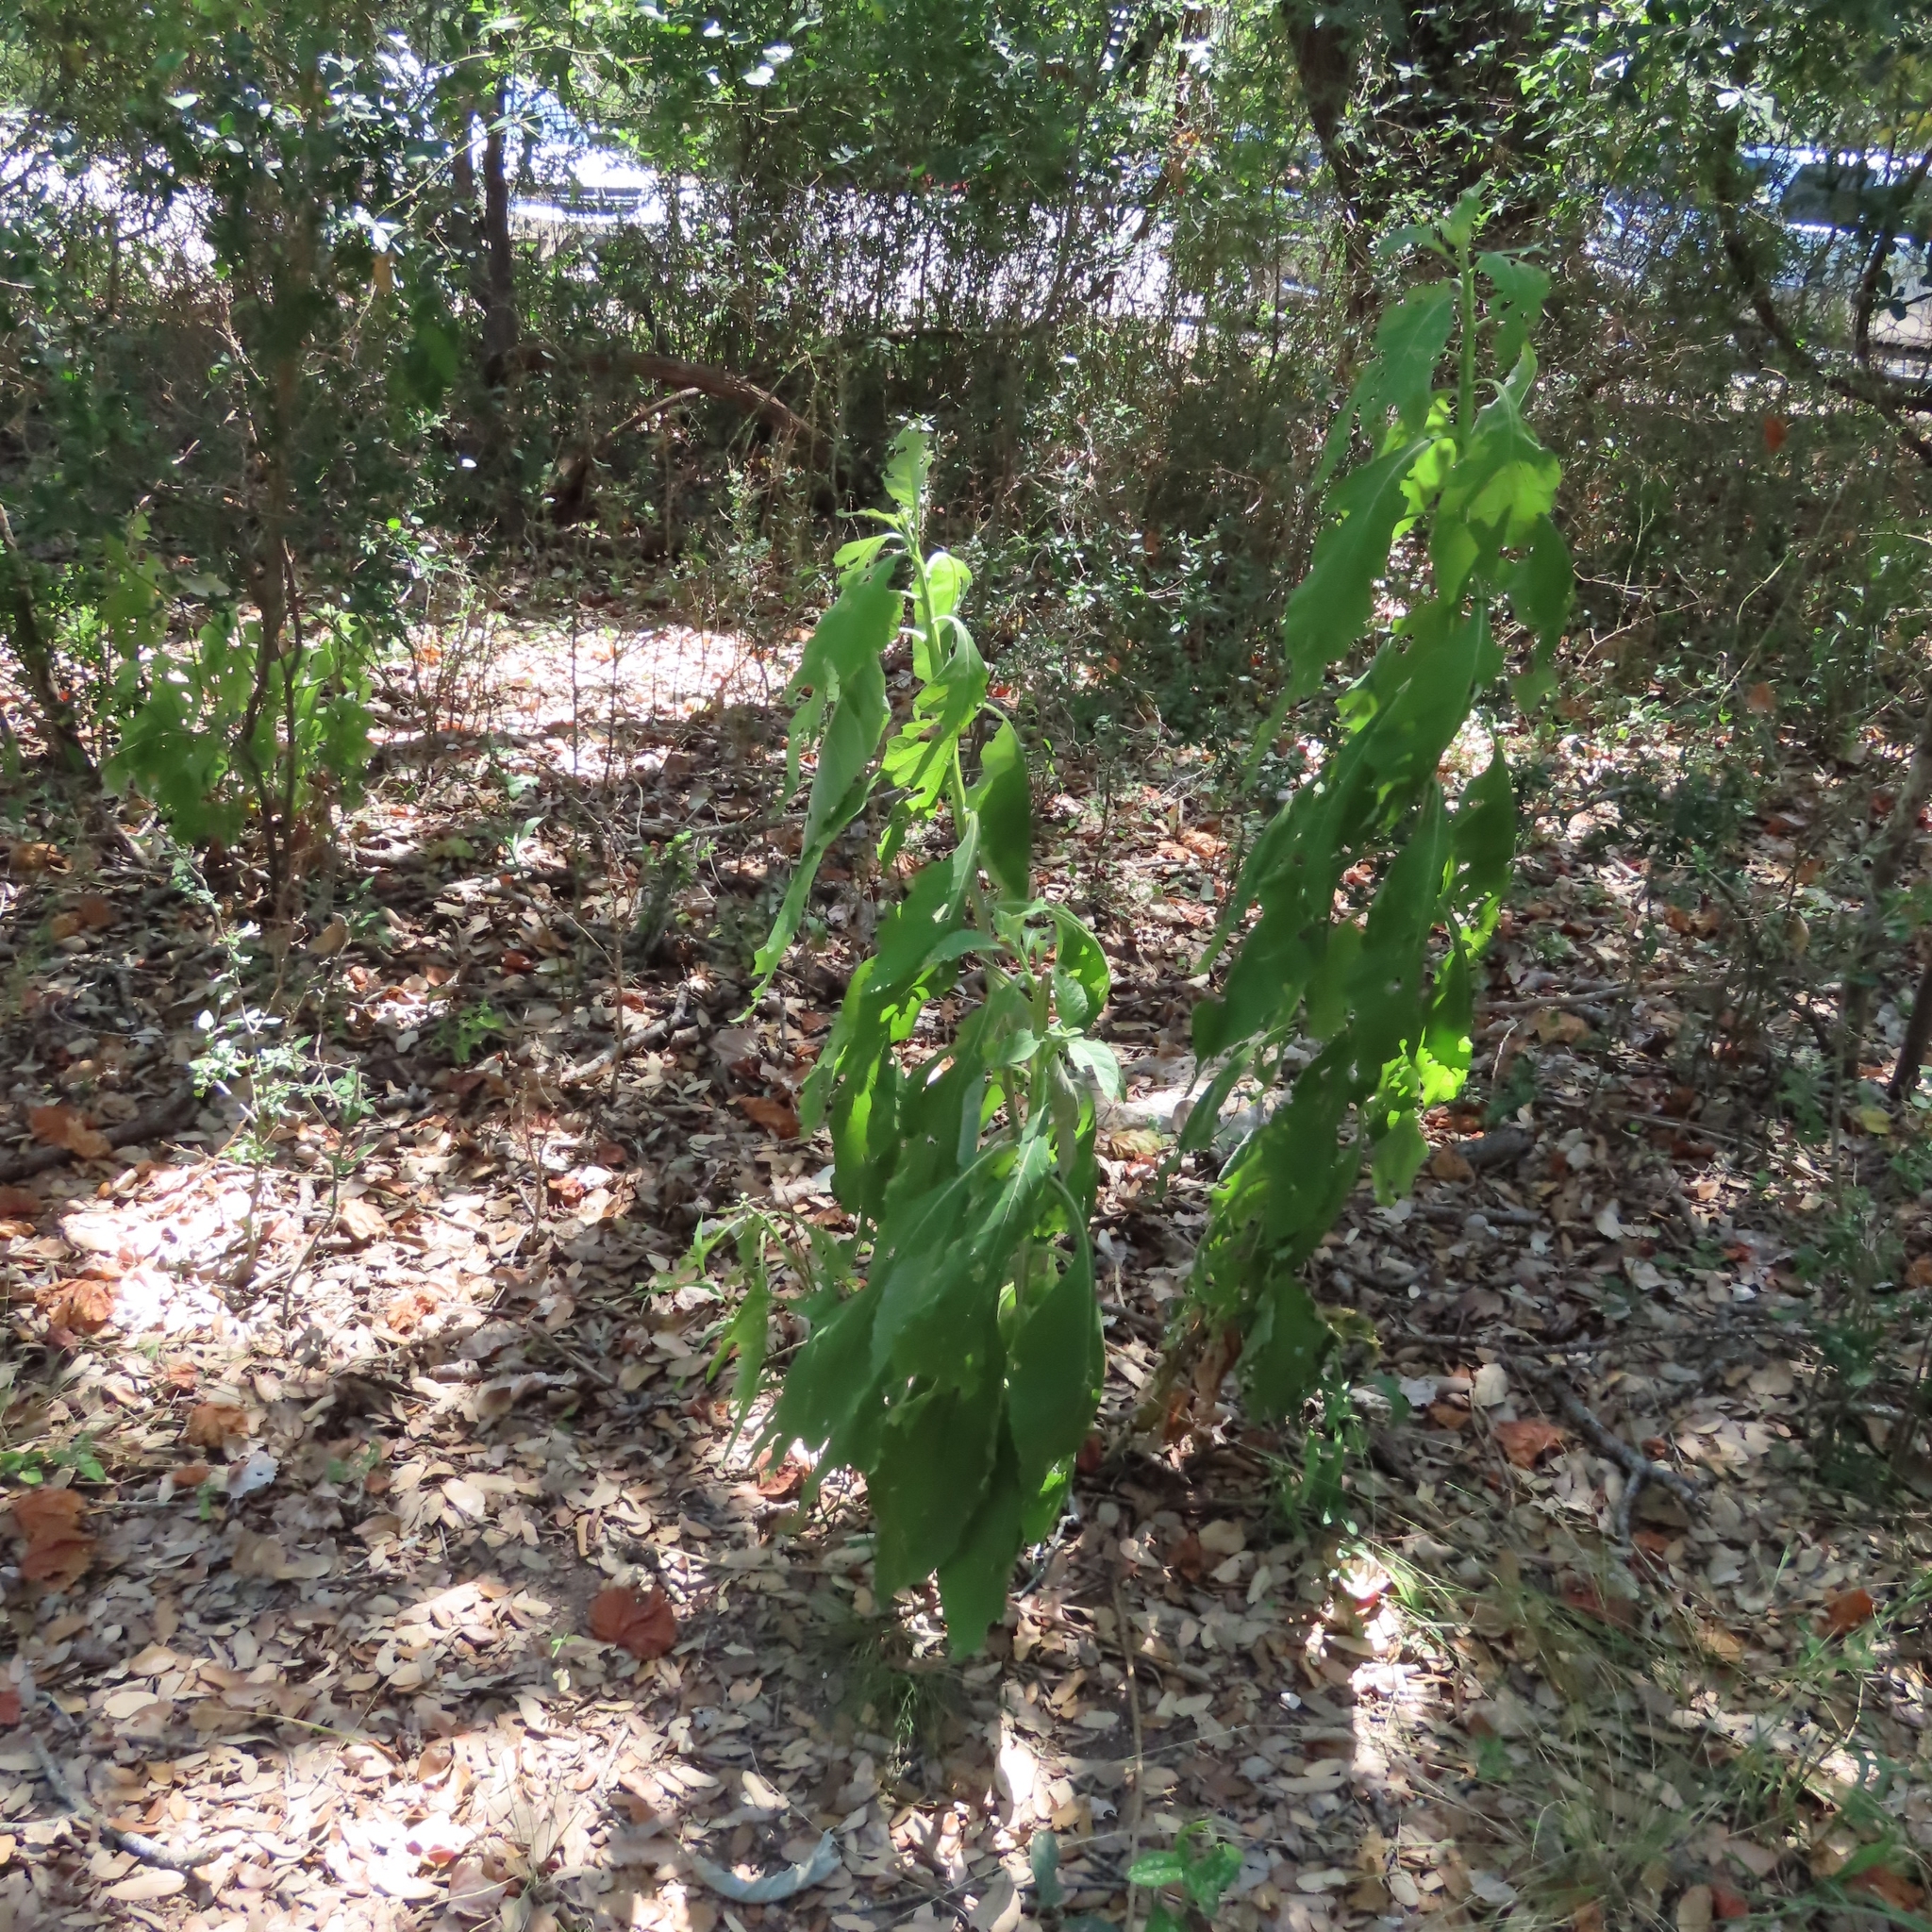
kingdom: Plantae
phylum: Tracheophyta
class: Magnoliopsida
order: Asterales
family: Asteraceae
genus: Verbesina
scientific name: Verbesina virginica
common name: Frostweed
